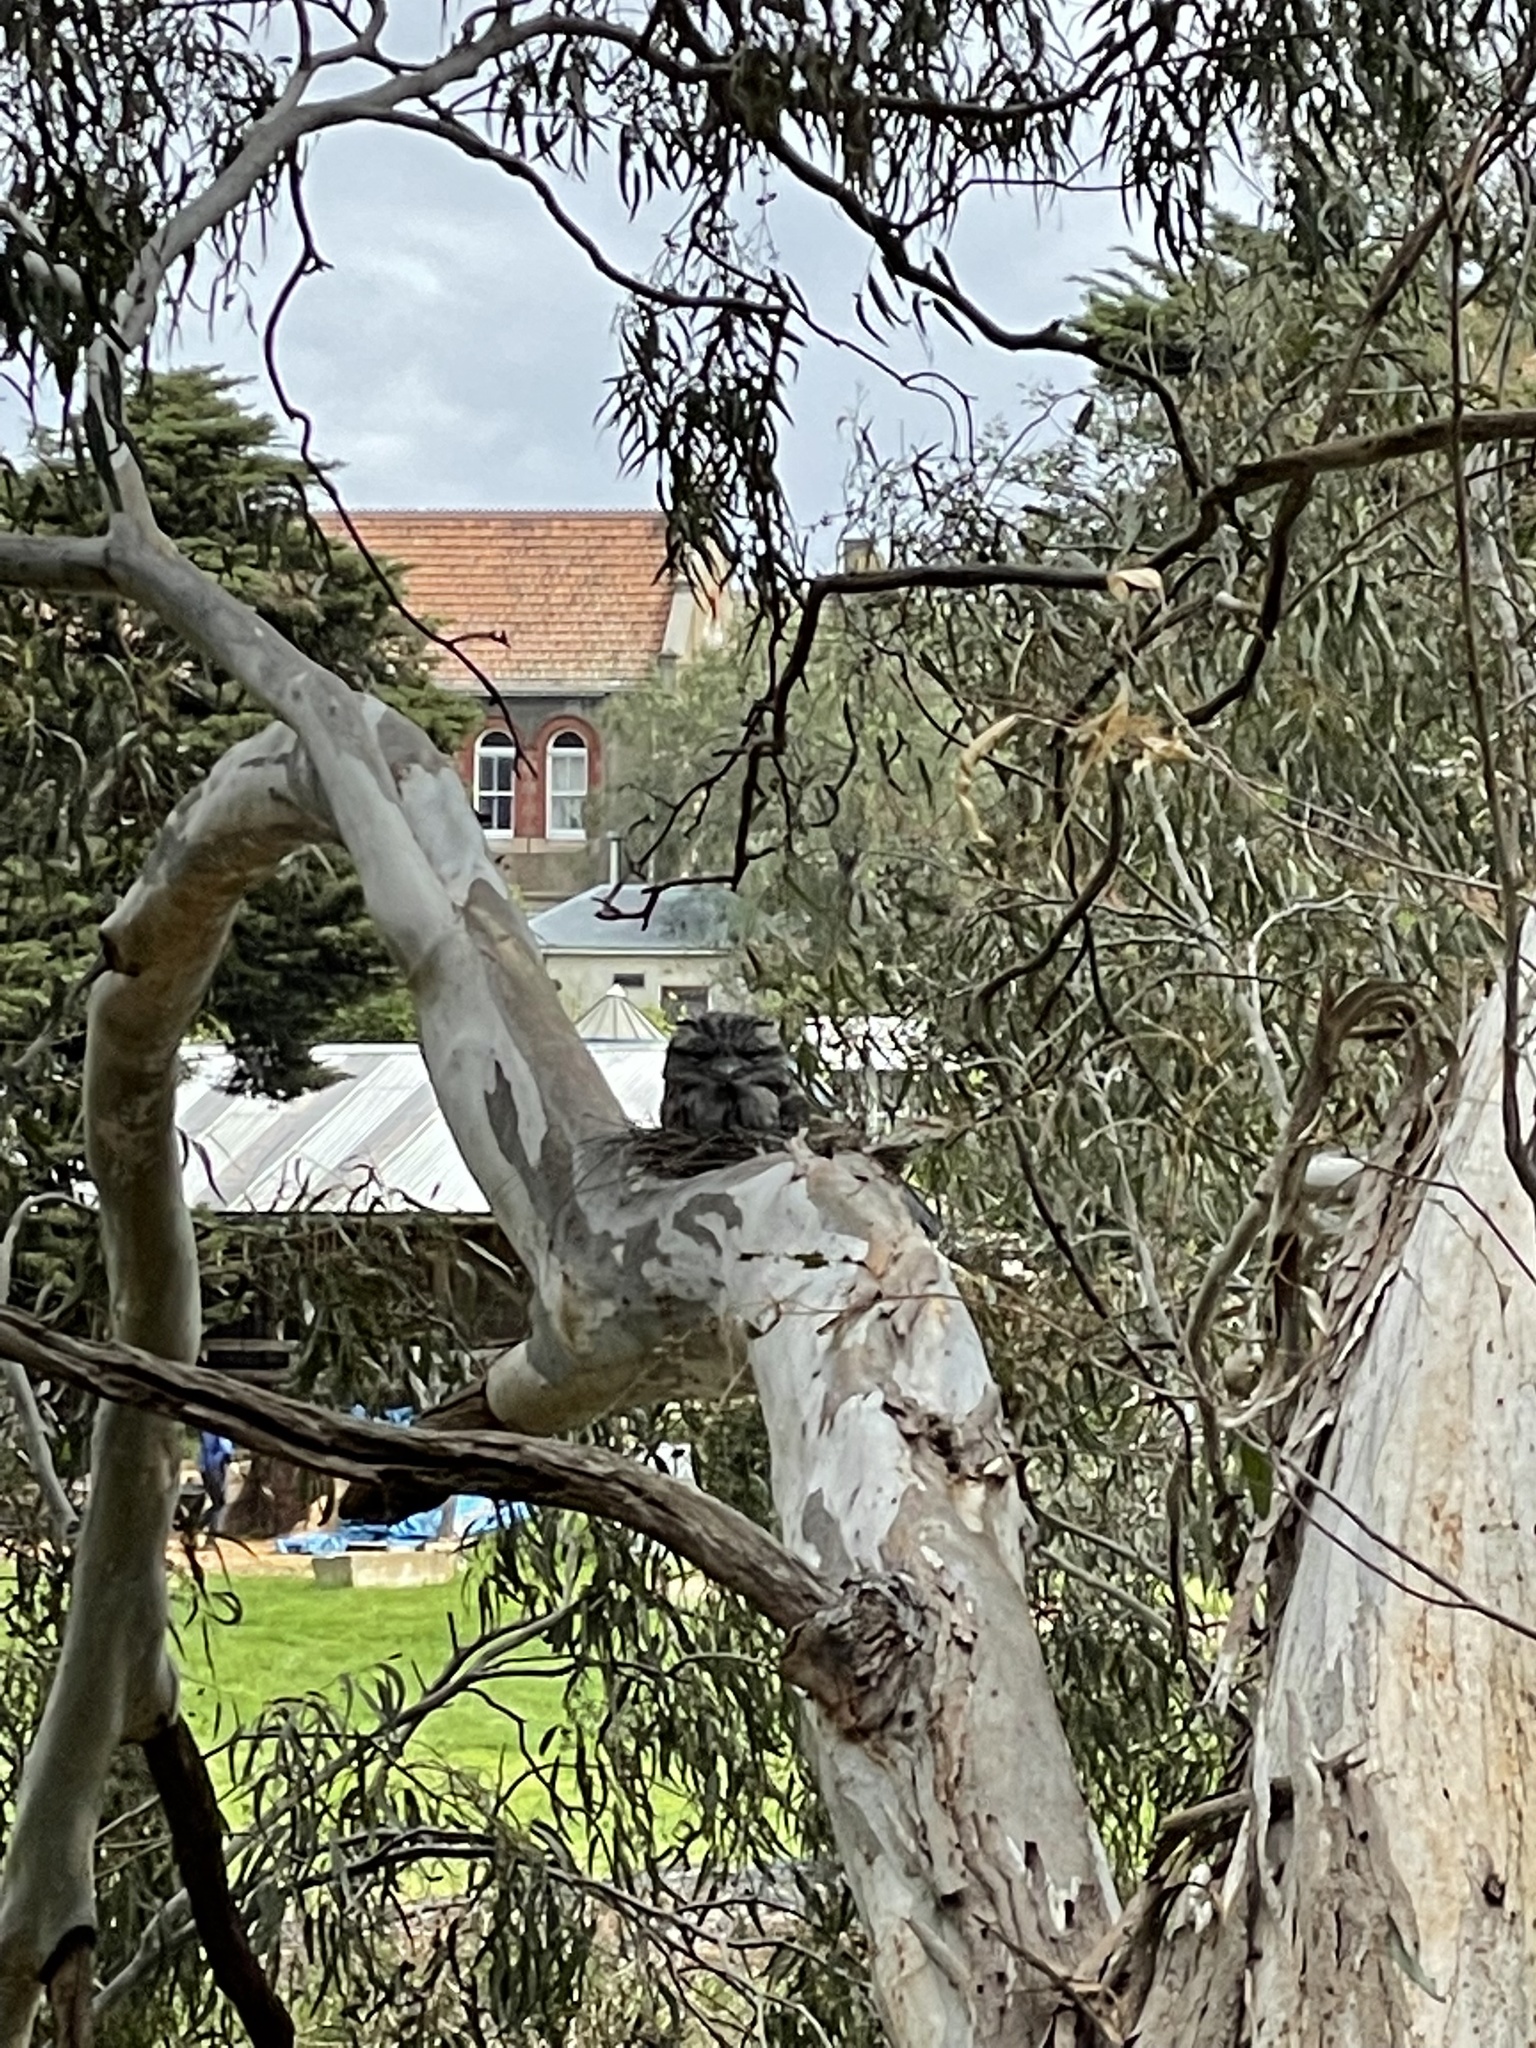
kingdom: Animalia
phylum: Chordata
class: Aves
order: Caprimulgiformes
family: Podargidae
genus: Podargus
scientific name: Podargus strigoides
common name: Tawny frogmouth
